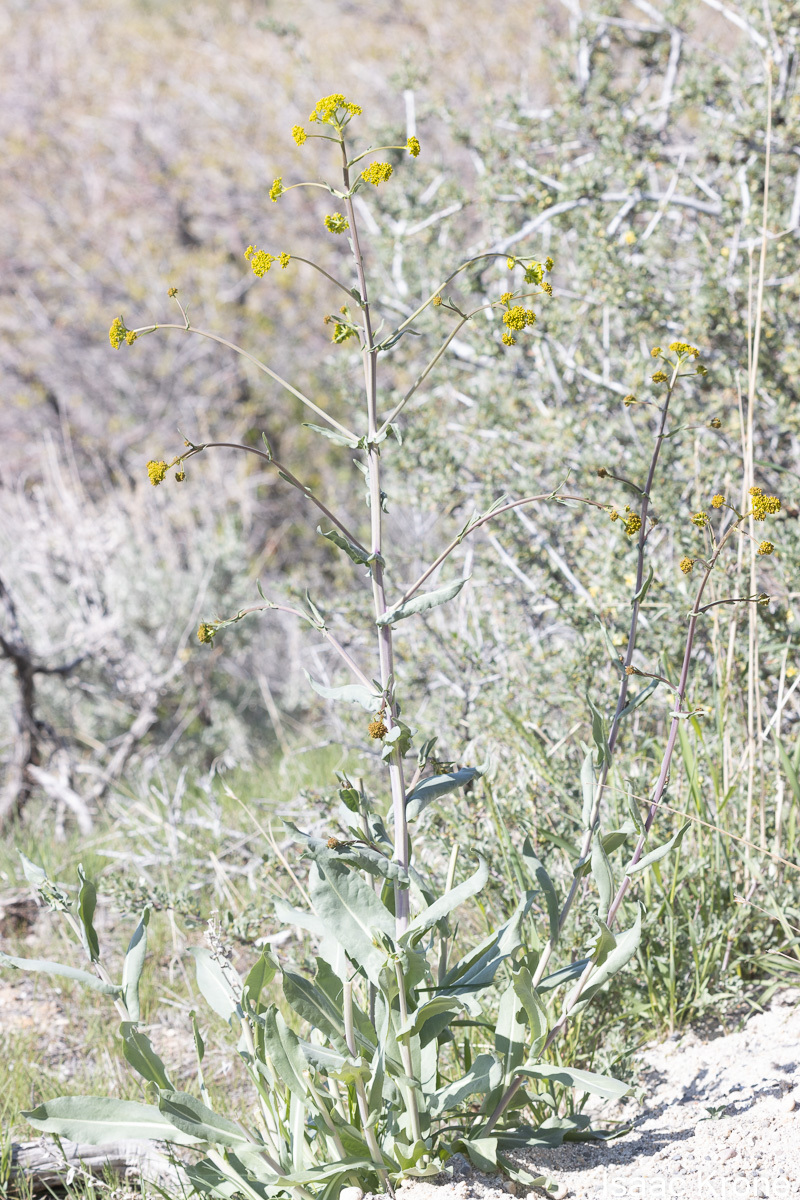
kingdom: Plantae
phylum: Tracheophyta
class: Magnoliopsida
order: Brassicales
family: Brassicaceae
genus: Isatis
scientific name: Isatis tinctoria
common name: Woad
